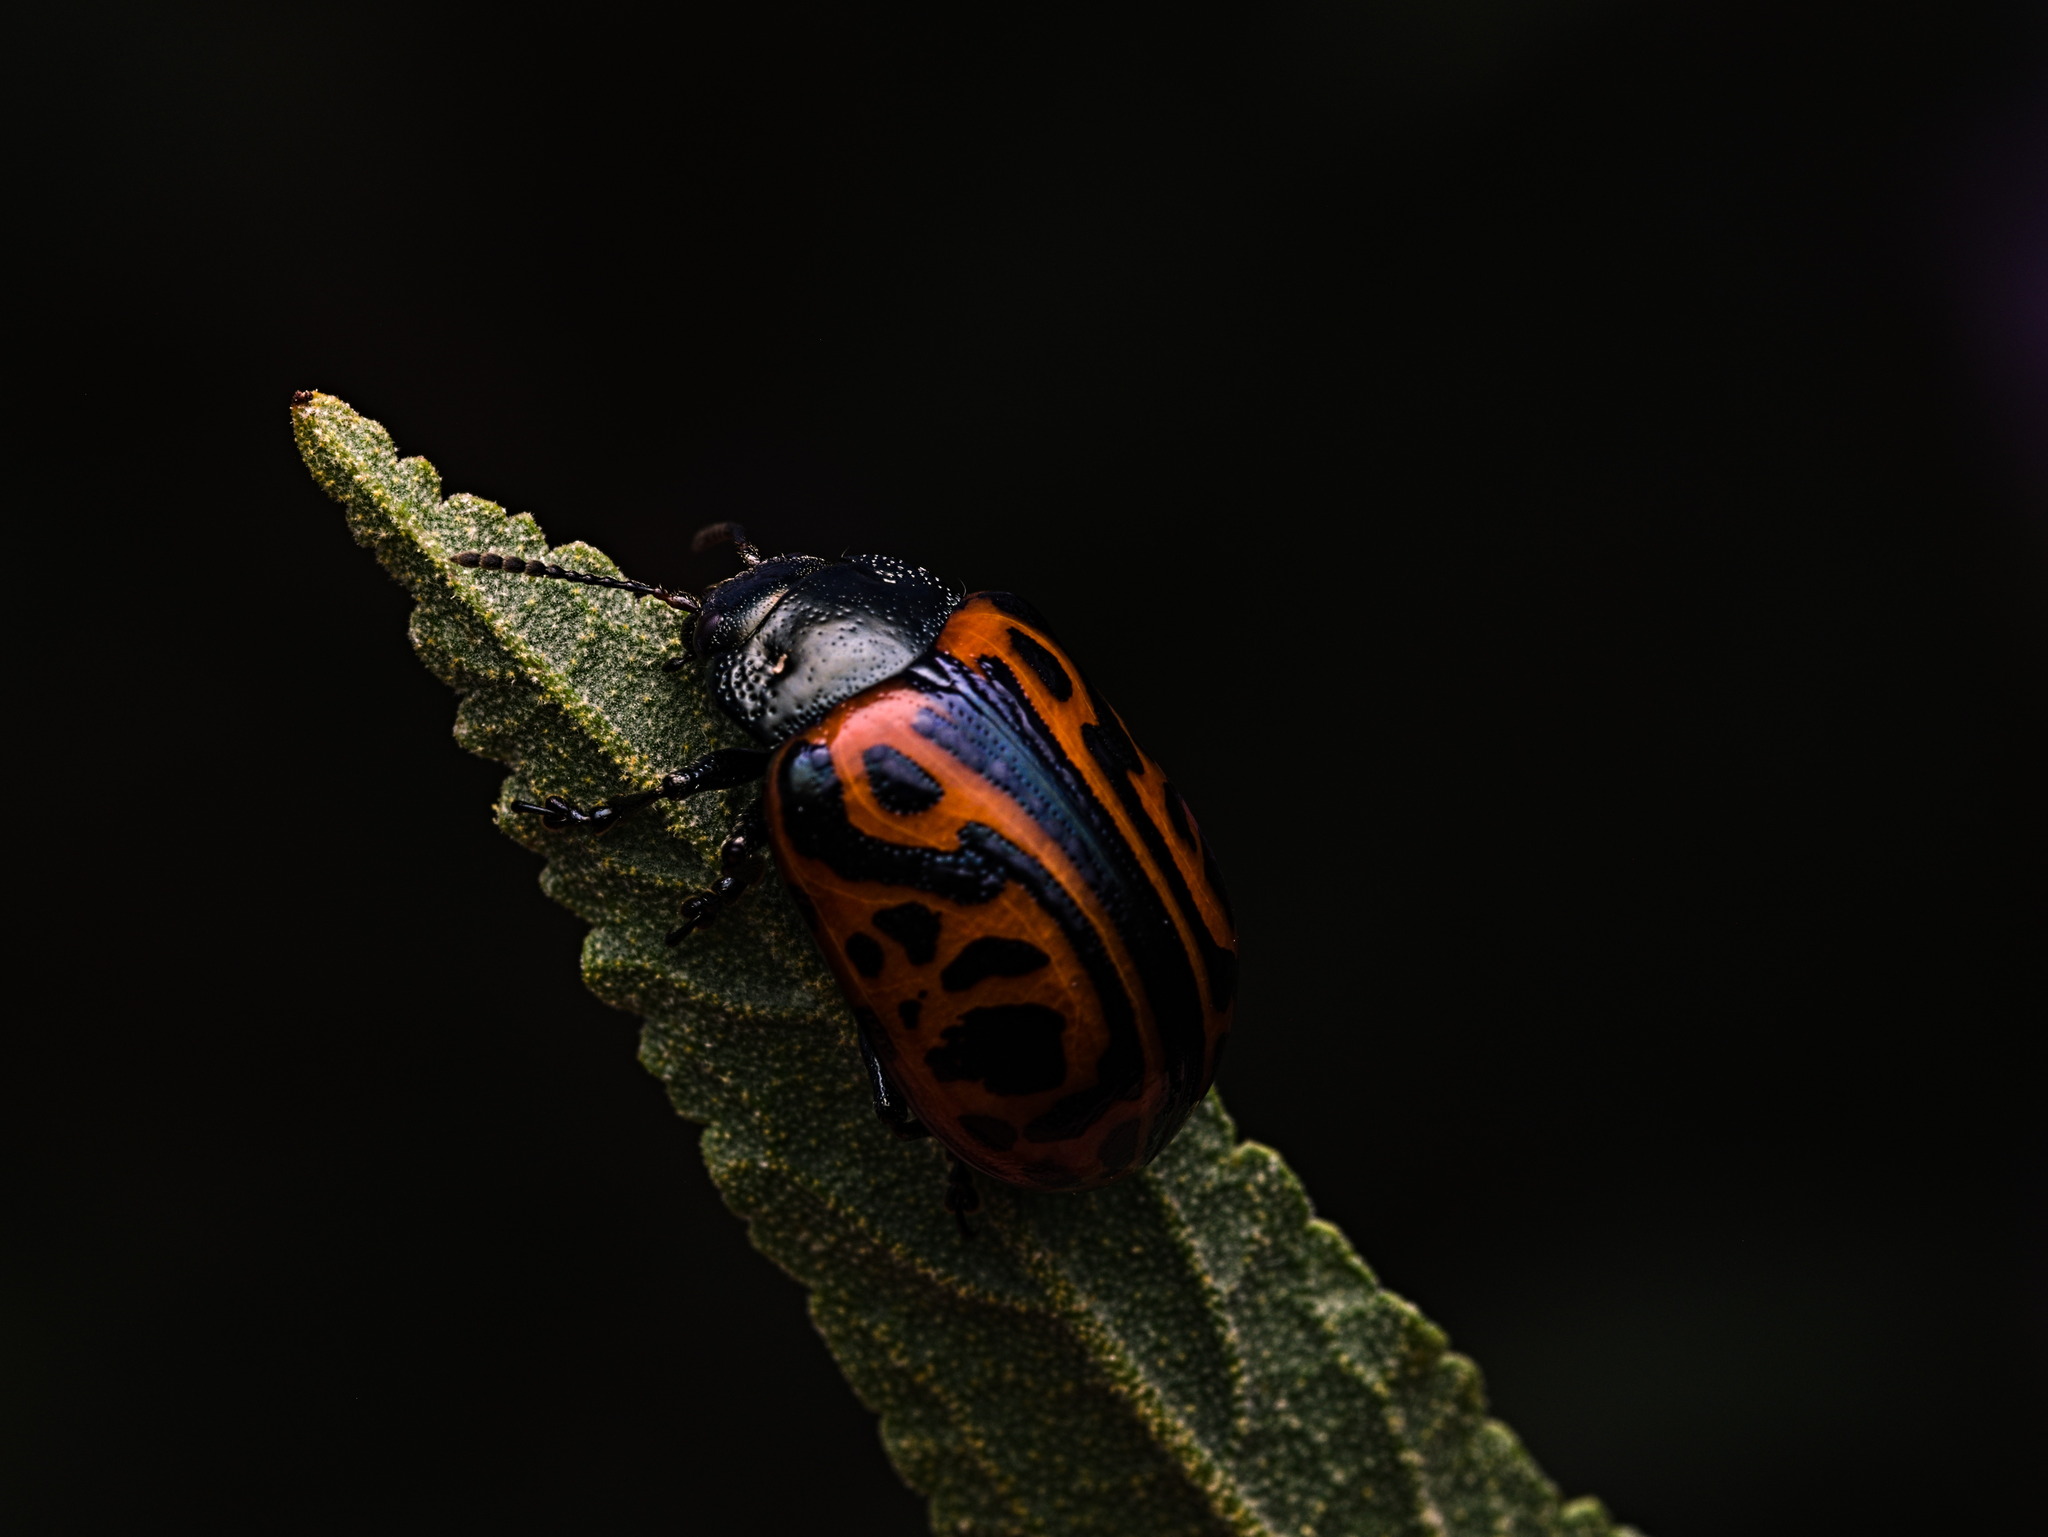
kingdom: Animalia
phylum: Arthropoda
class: Insecta
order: Coleoptera
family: Chrysomelidae
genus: Calligrapha
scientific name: Calligrapha mexicana
